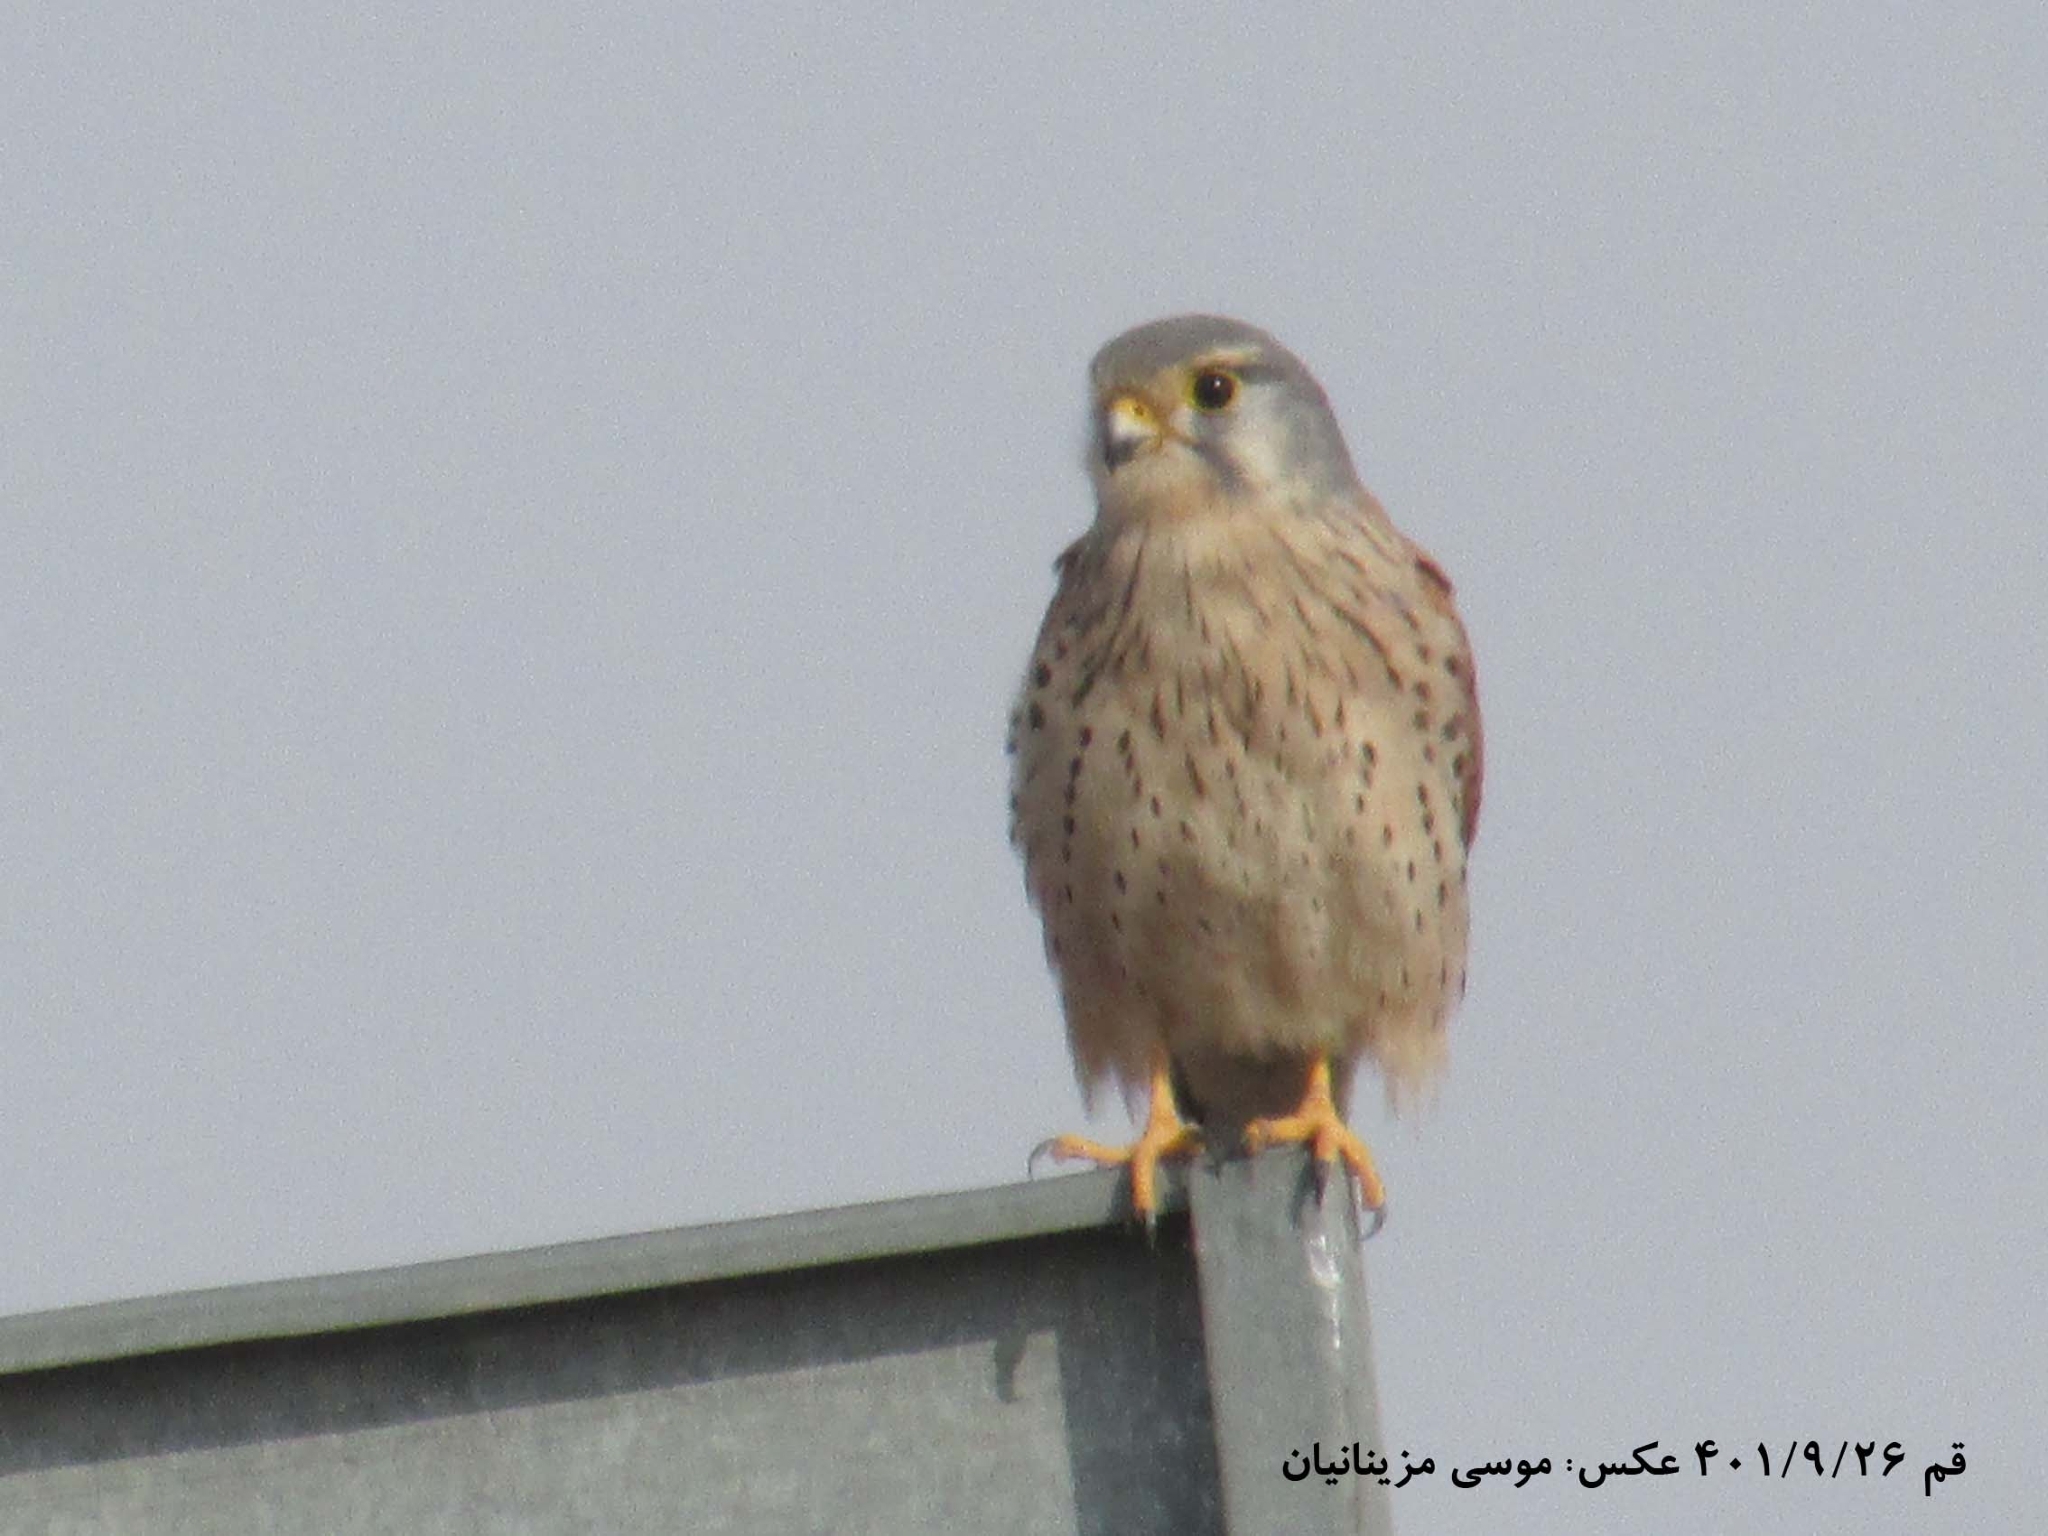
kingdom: Animalia
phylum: Chordata
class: Aves
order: Falconiformes
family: Falconidae
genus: Falco
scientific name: Falco tinnunculus
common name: Common kestrel
